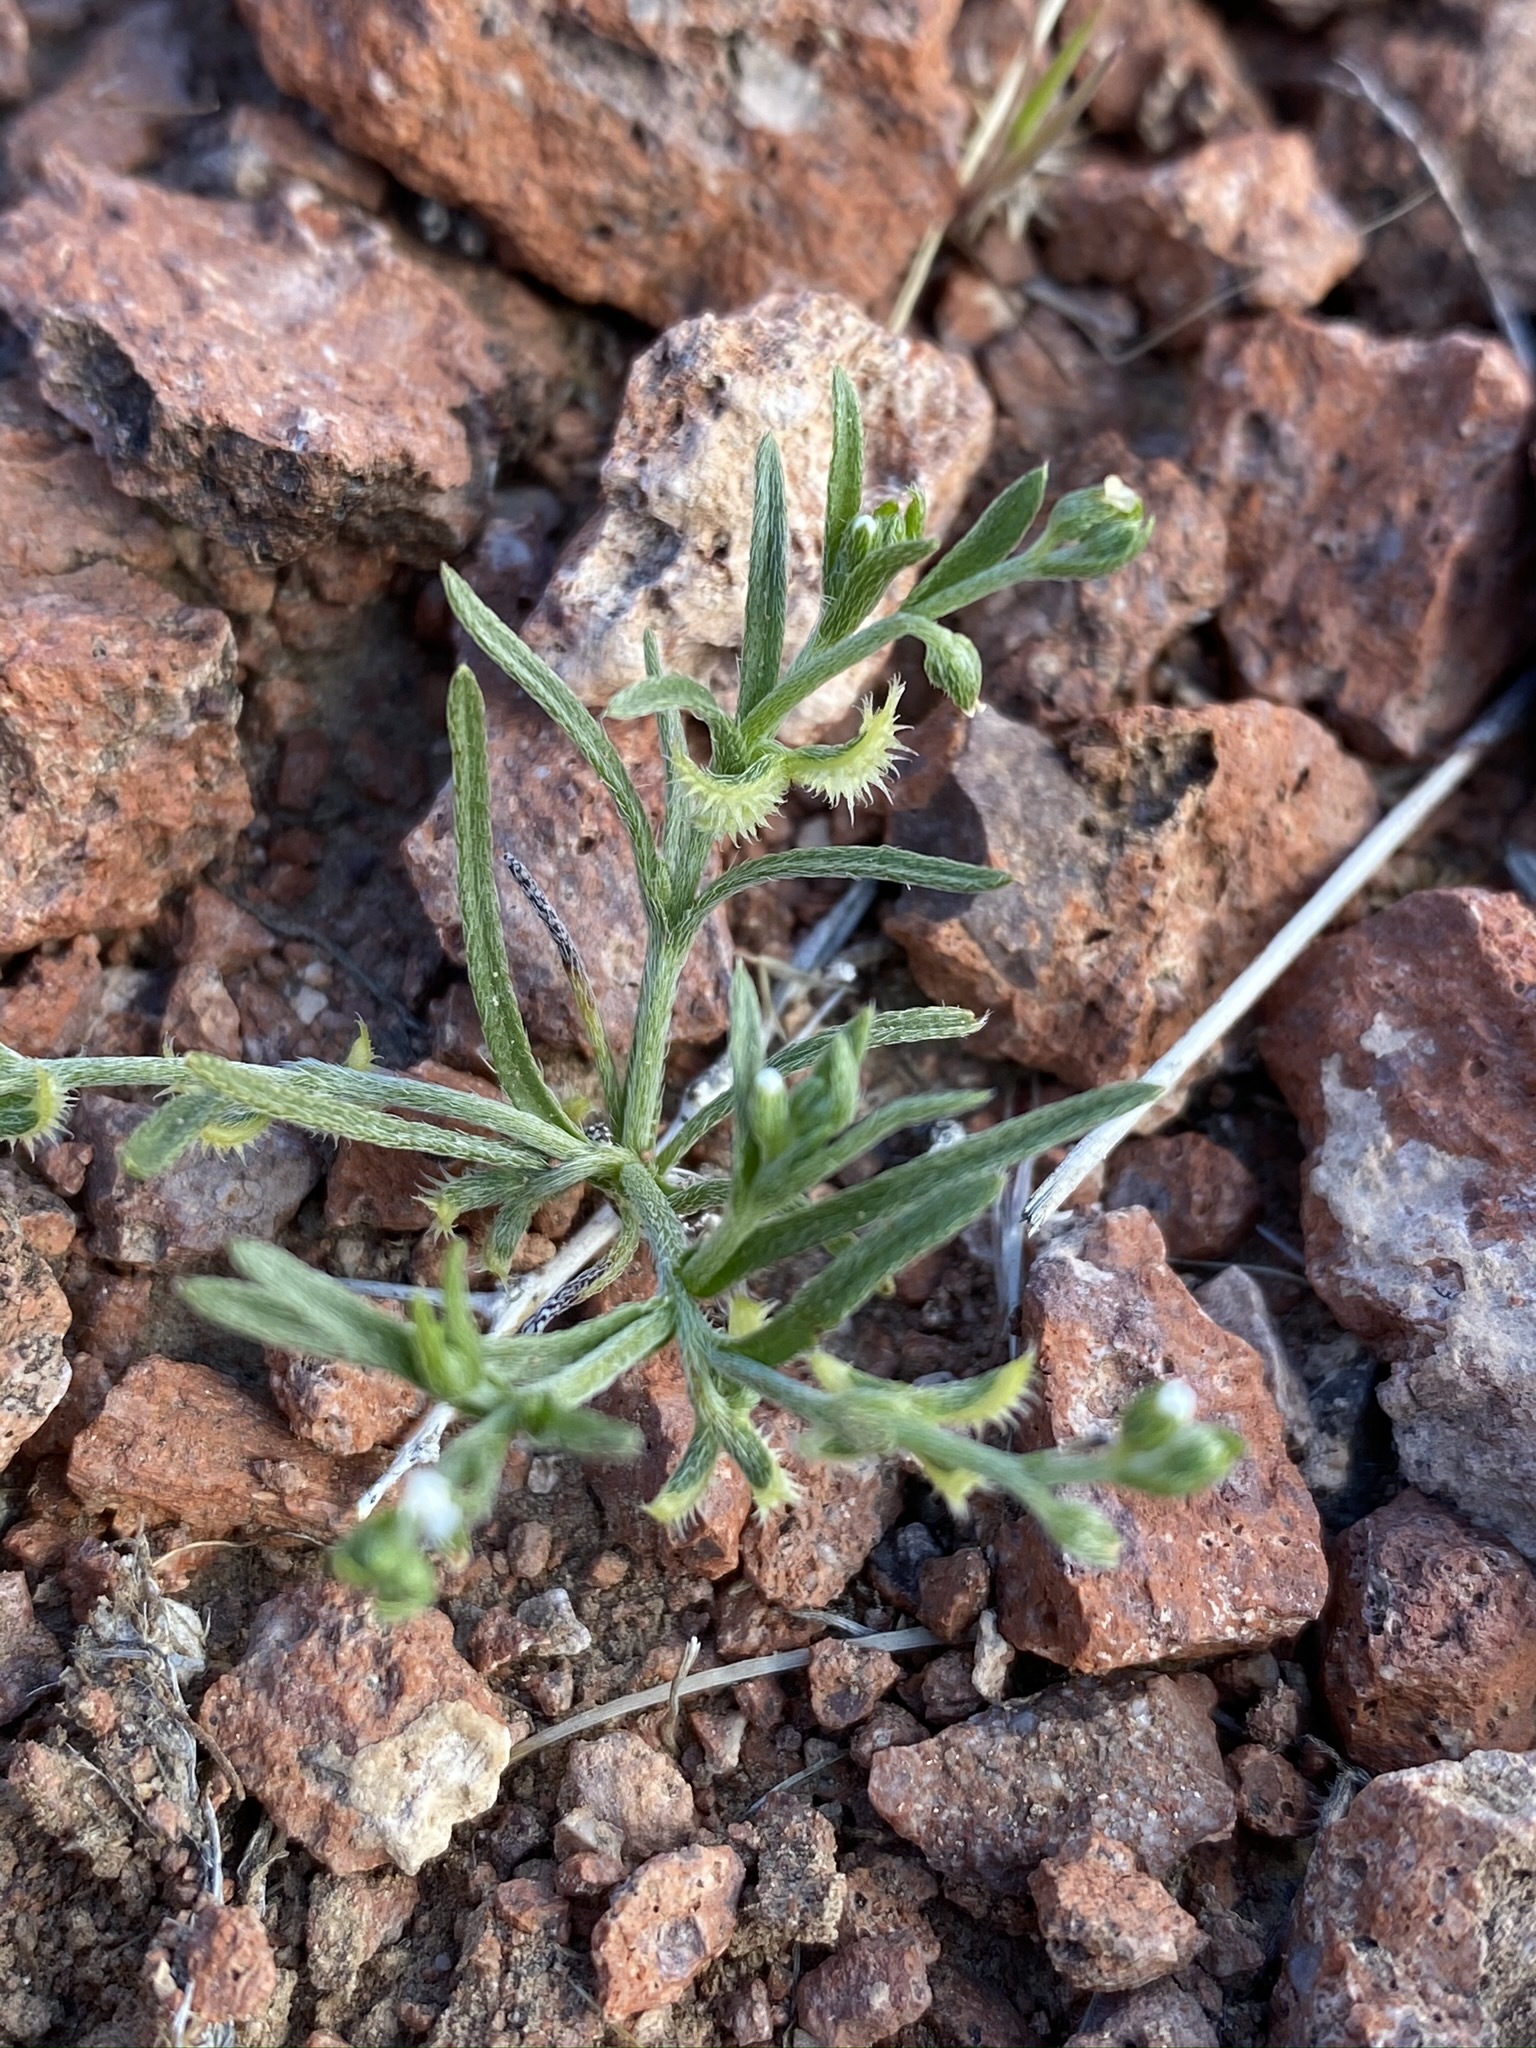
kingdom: Plantae
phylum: Tracheophyta
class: Magnoliopsida
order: Boraginales
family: Boraginaceae
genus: Pectocarya
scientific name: Pectocarya recurvata
